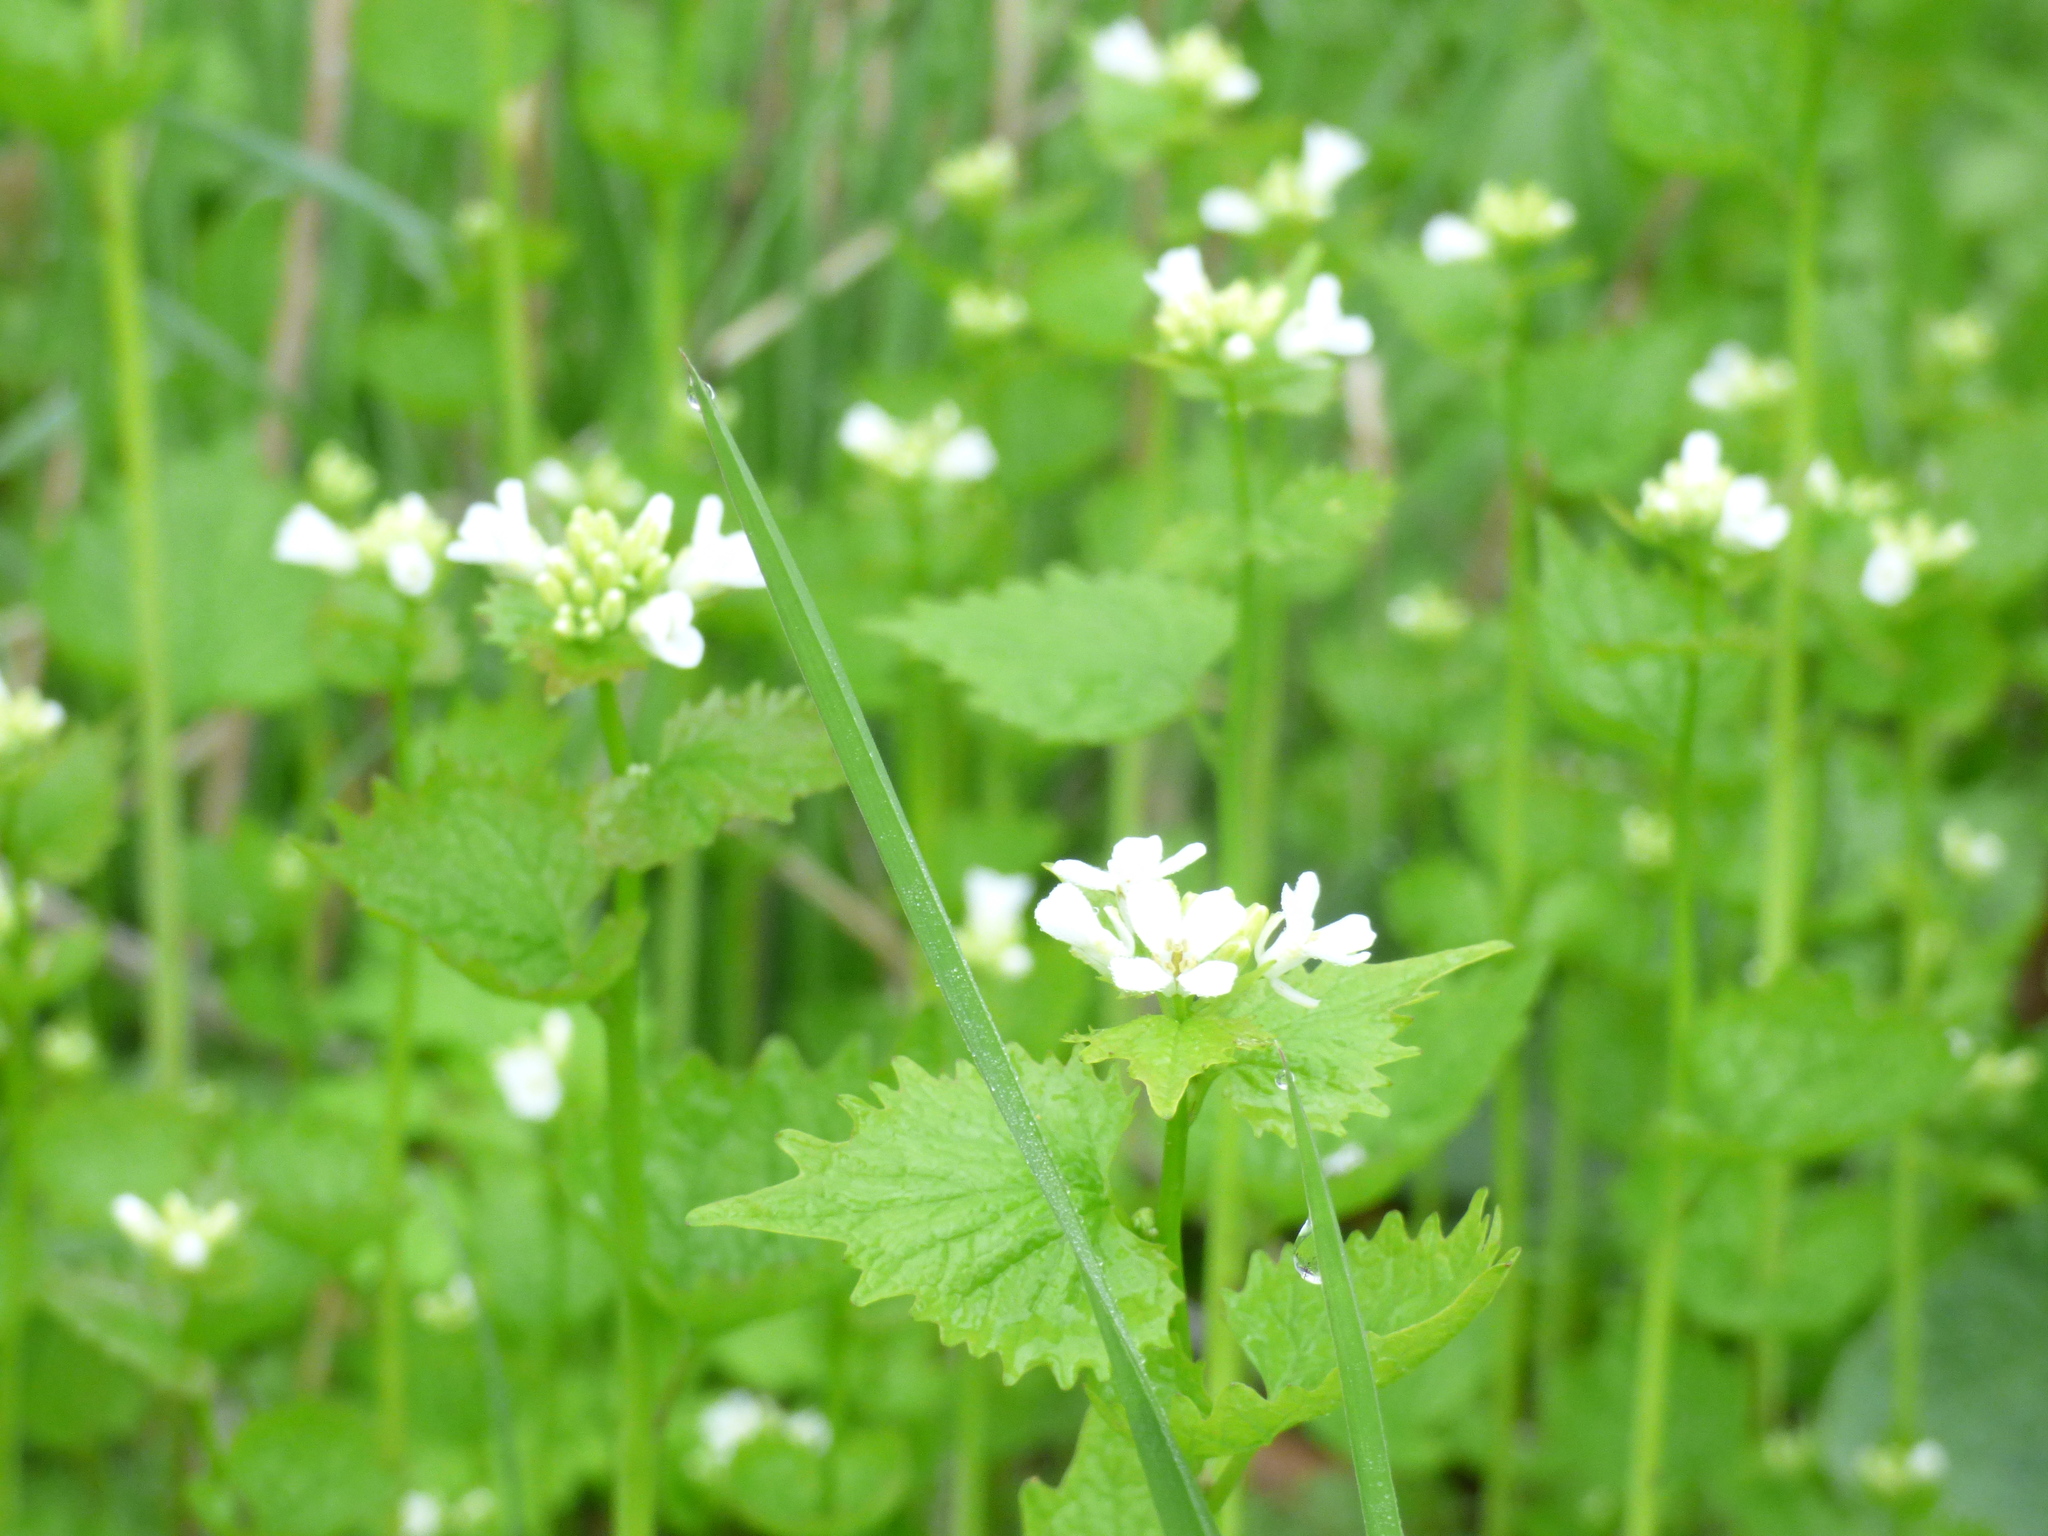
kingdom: Plantae
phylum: Tracheophyta
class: Magnoliopsida
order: Brassicales
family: Brassicaceae
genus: Alliaria
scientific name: Alliaria petiolata
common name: Garlic mustard
